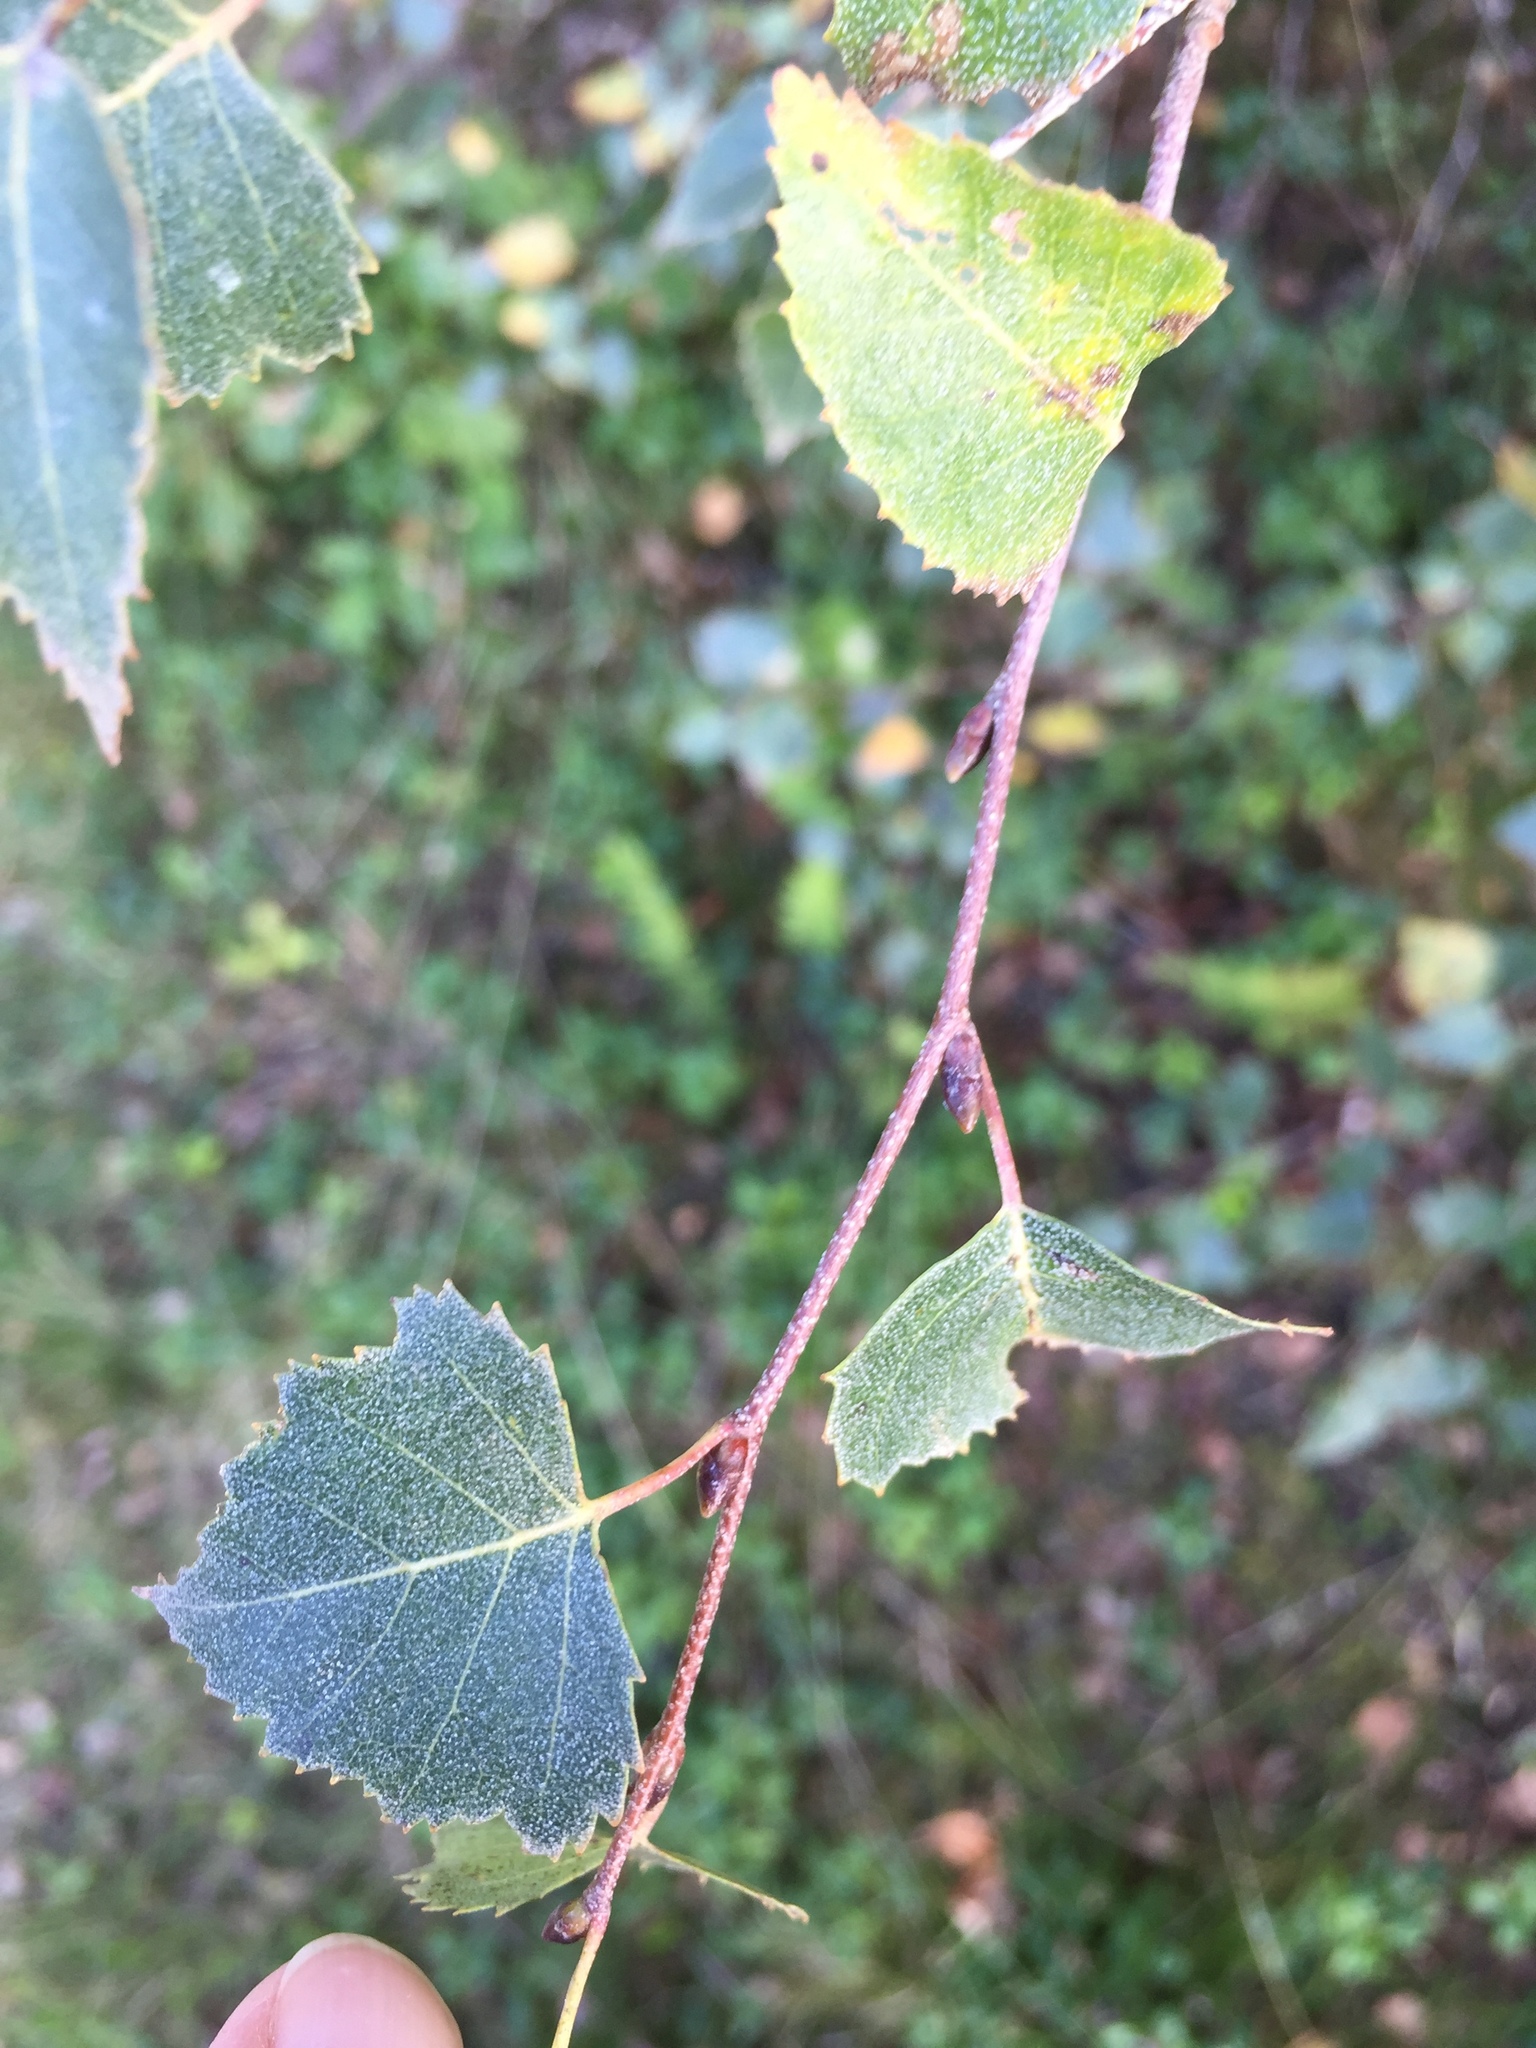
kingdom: Plantae
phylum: Tracheophyta
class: Magnoliopsida
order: Fagales
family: Betulaceae
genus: Betula
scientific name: Betula pendula
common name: Silver birch
